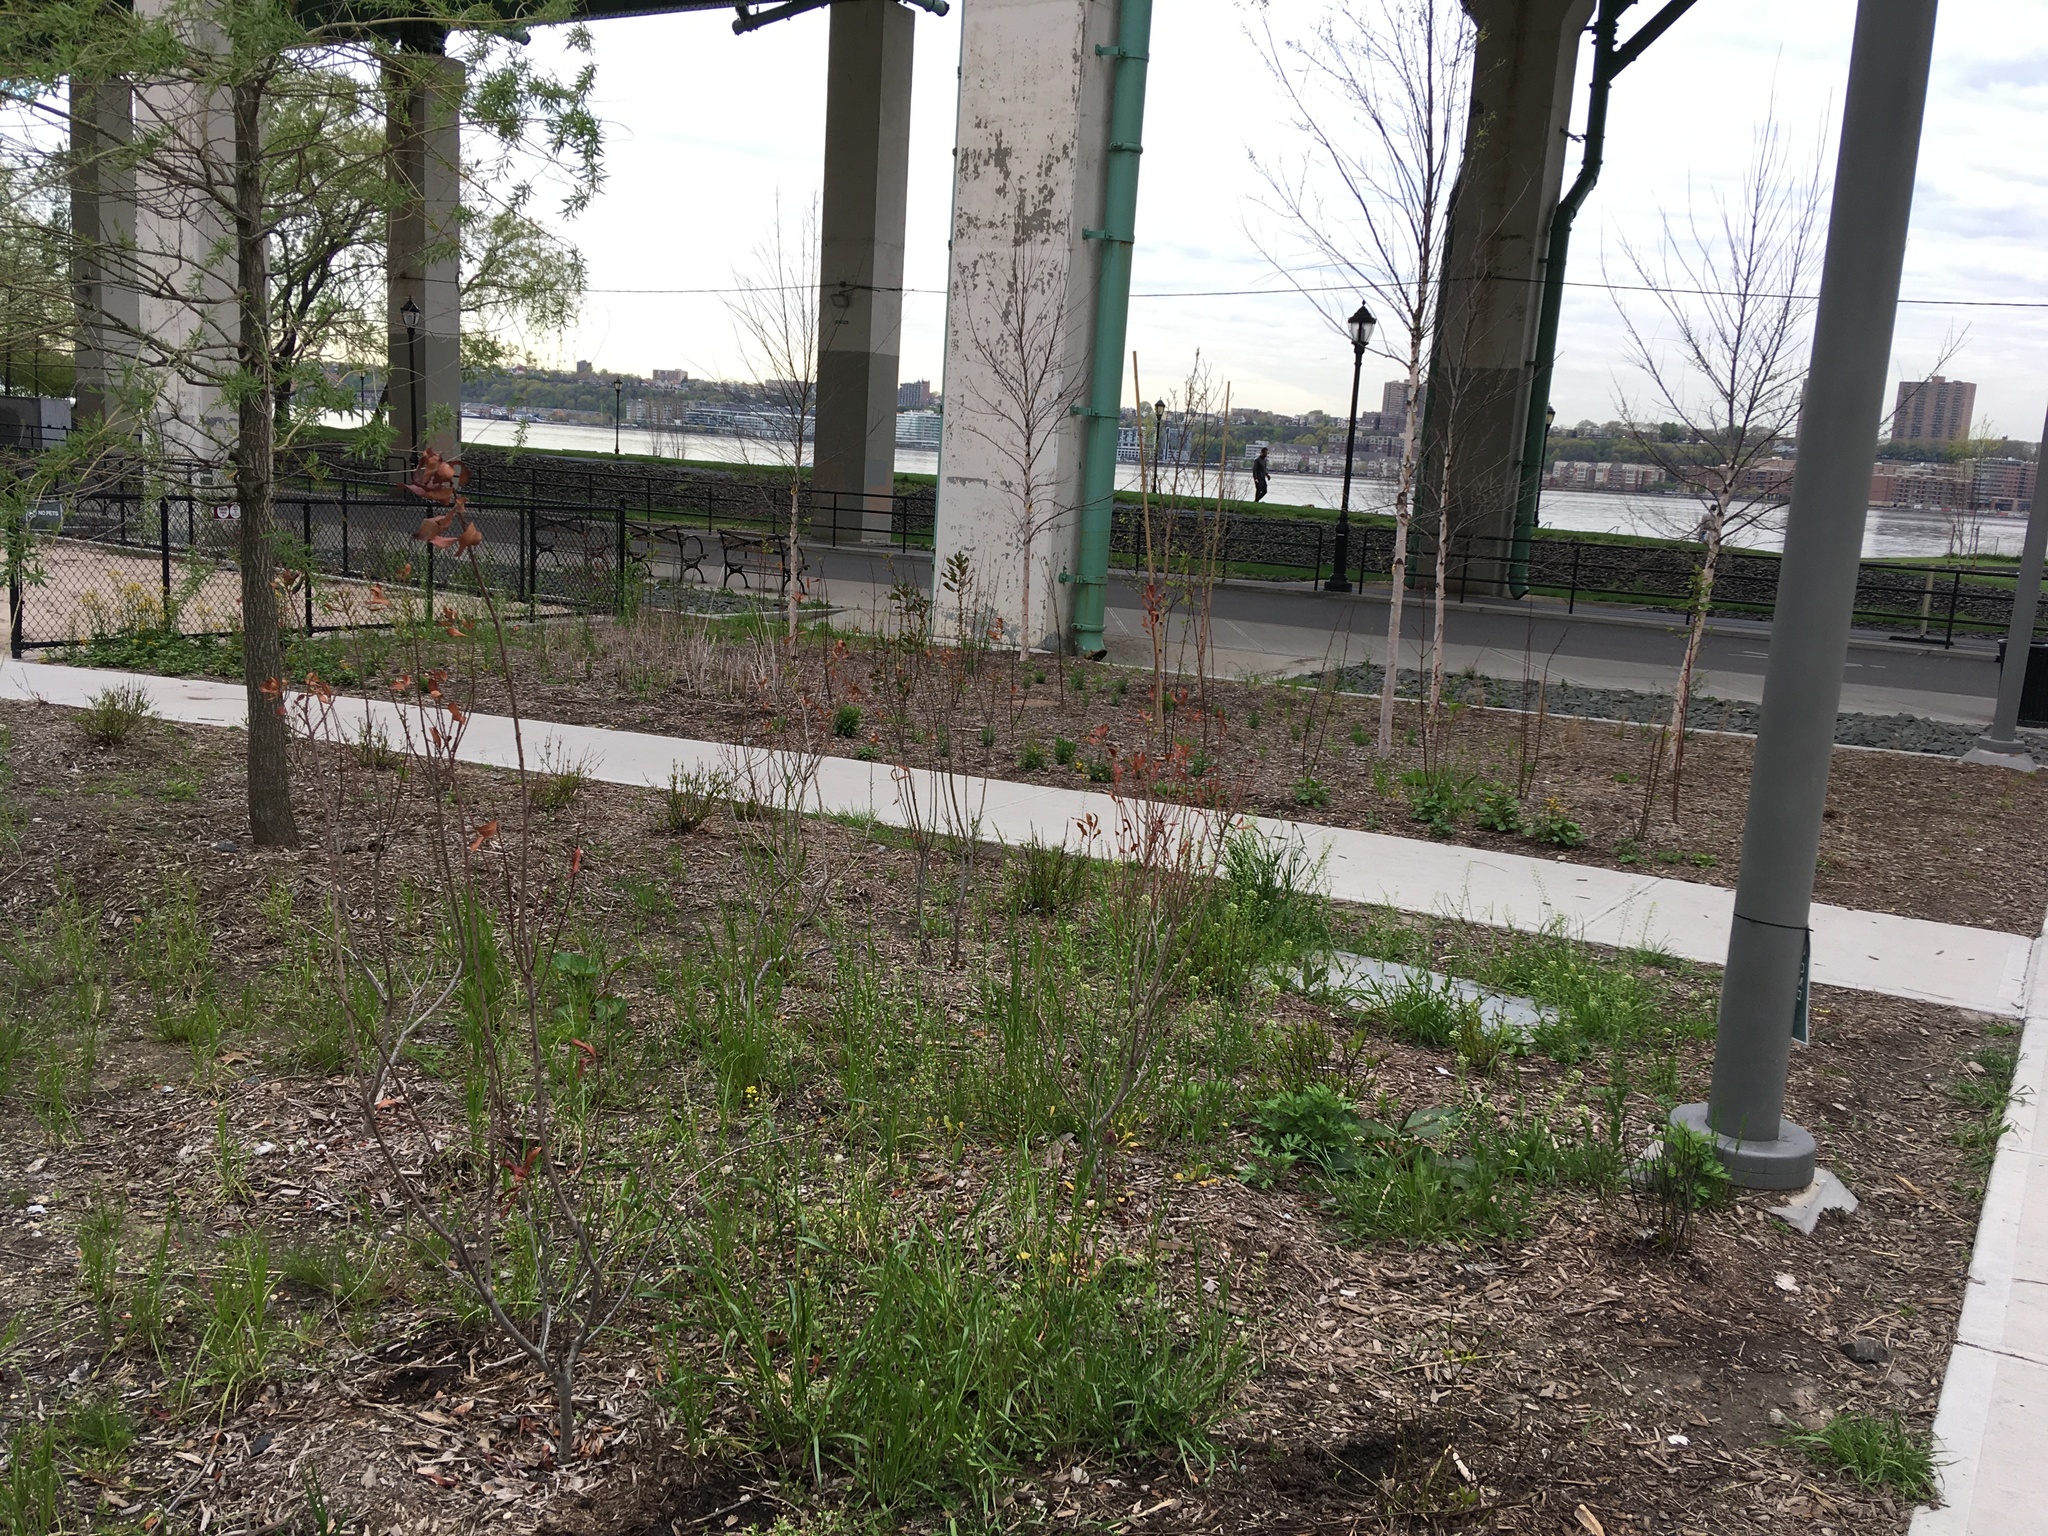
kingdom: Plantae
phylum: Tracheophyta
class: Magnoliopsida
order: Brassicales
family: Brassicaceae
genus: Mummenhoffia
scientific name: Mummenhoffia alliacea
